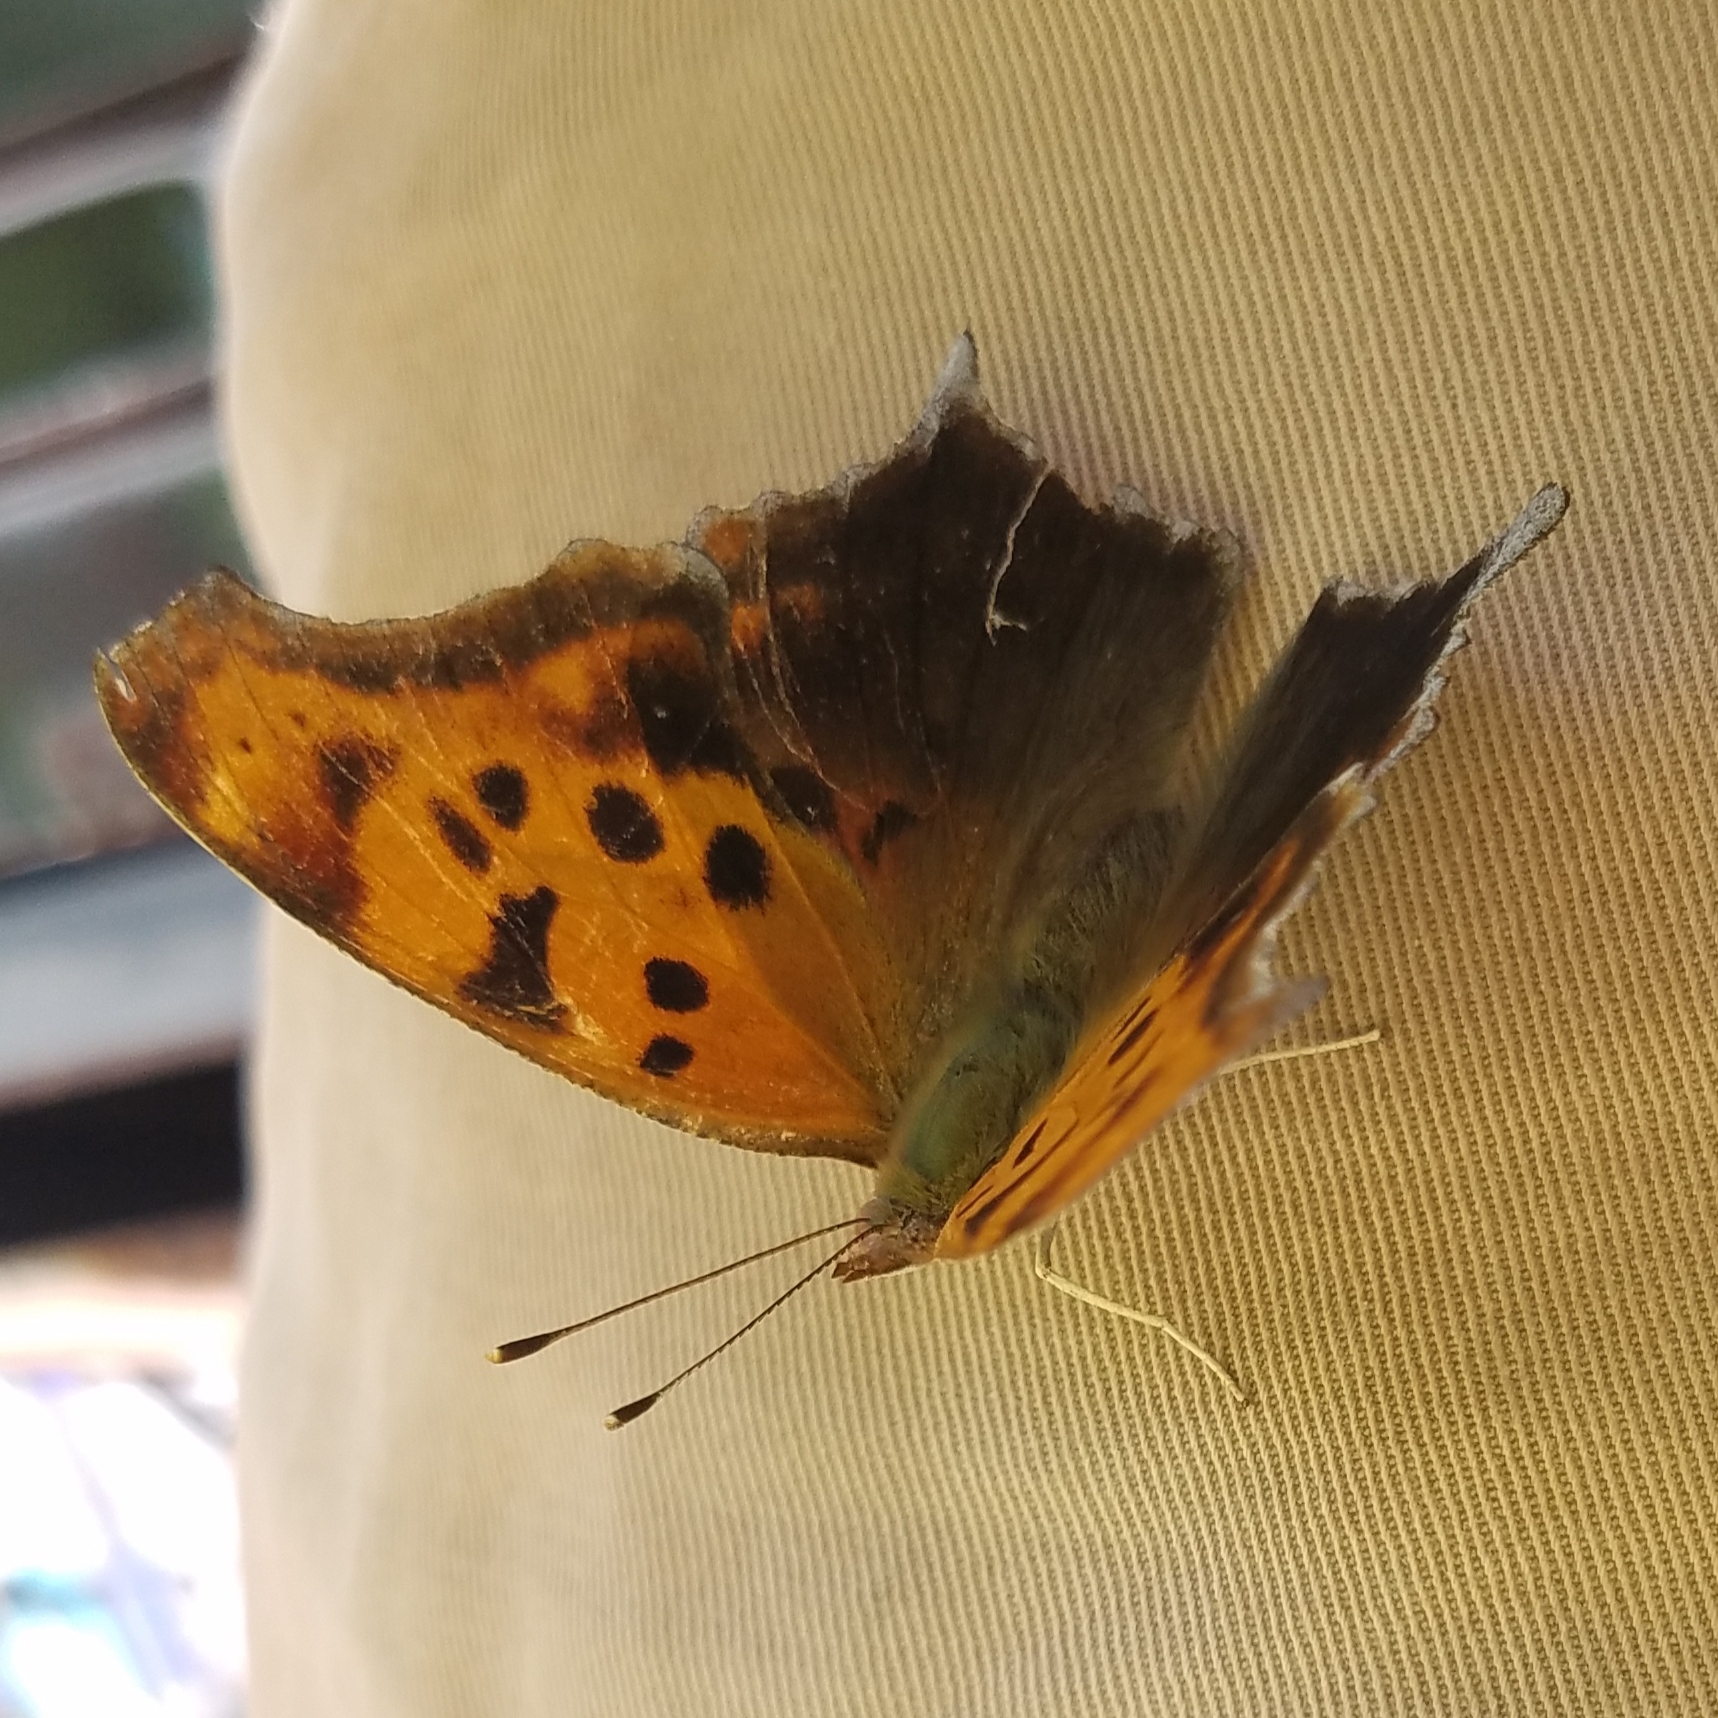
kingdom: Animalia
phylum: Arthropoda
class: Insecta
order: Lepidoptera
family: Nymphalidae
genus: Polygonia
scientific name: Polygonia interrogationis
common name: Question mark
